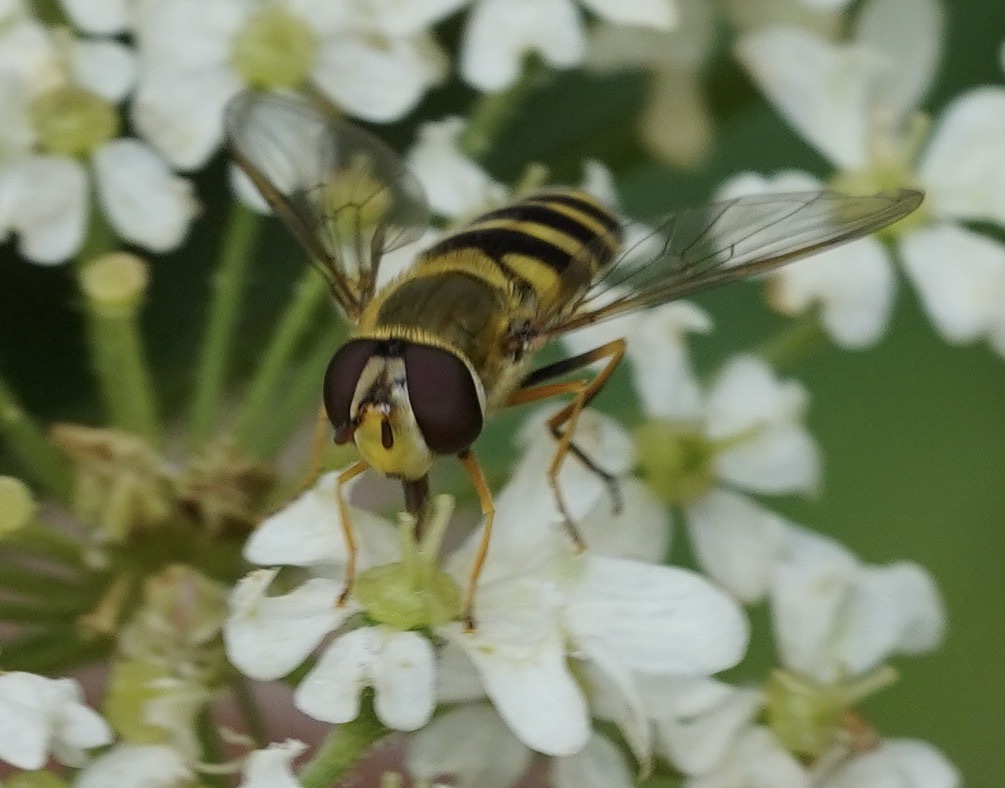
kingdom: Animalia
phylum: Arthropoda
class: Insecta
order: Diptera
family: Syrphidae
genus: Syrphus
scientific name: Syrphus
